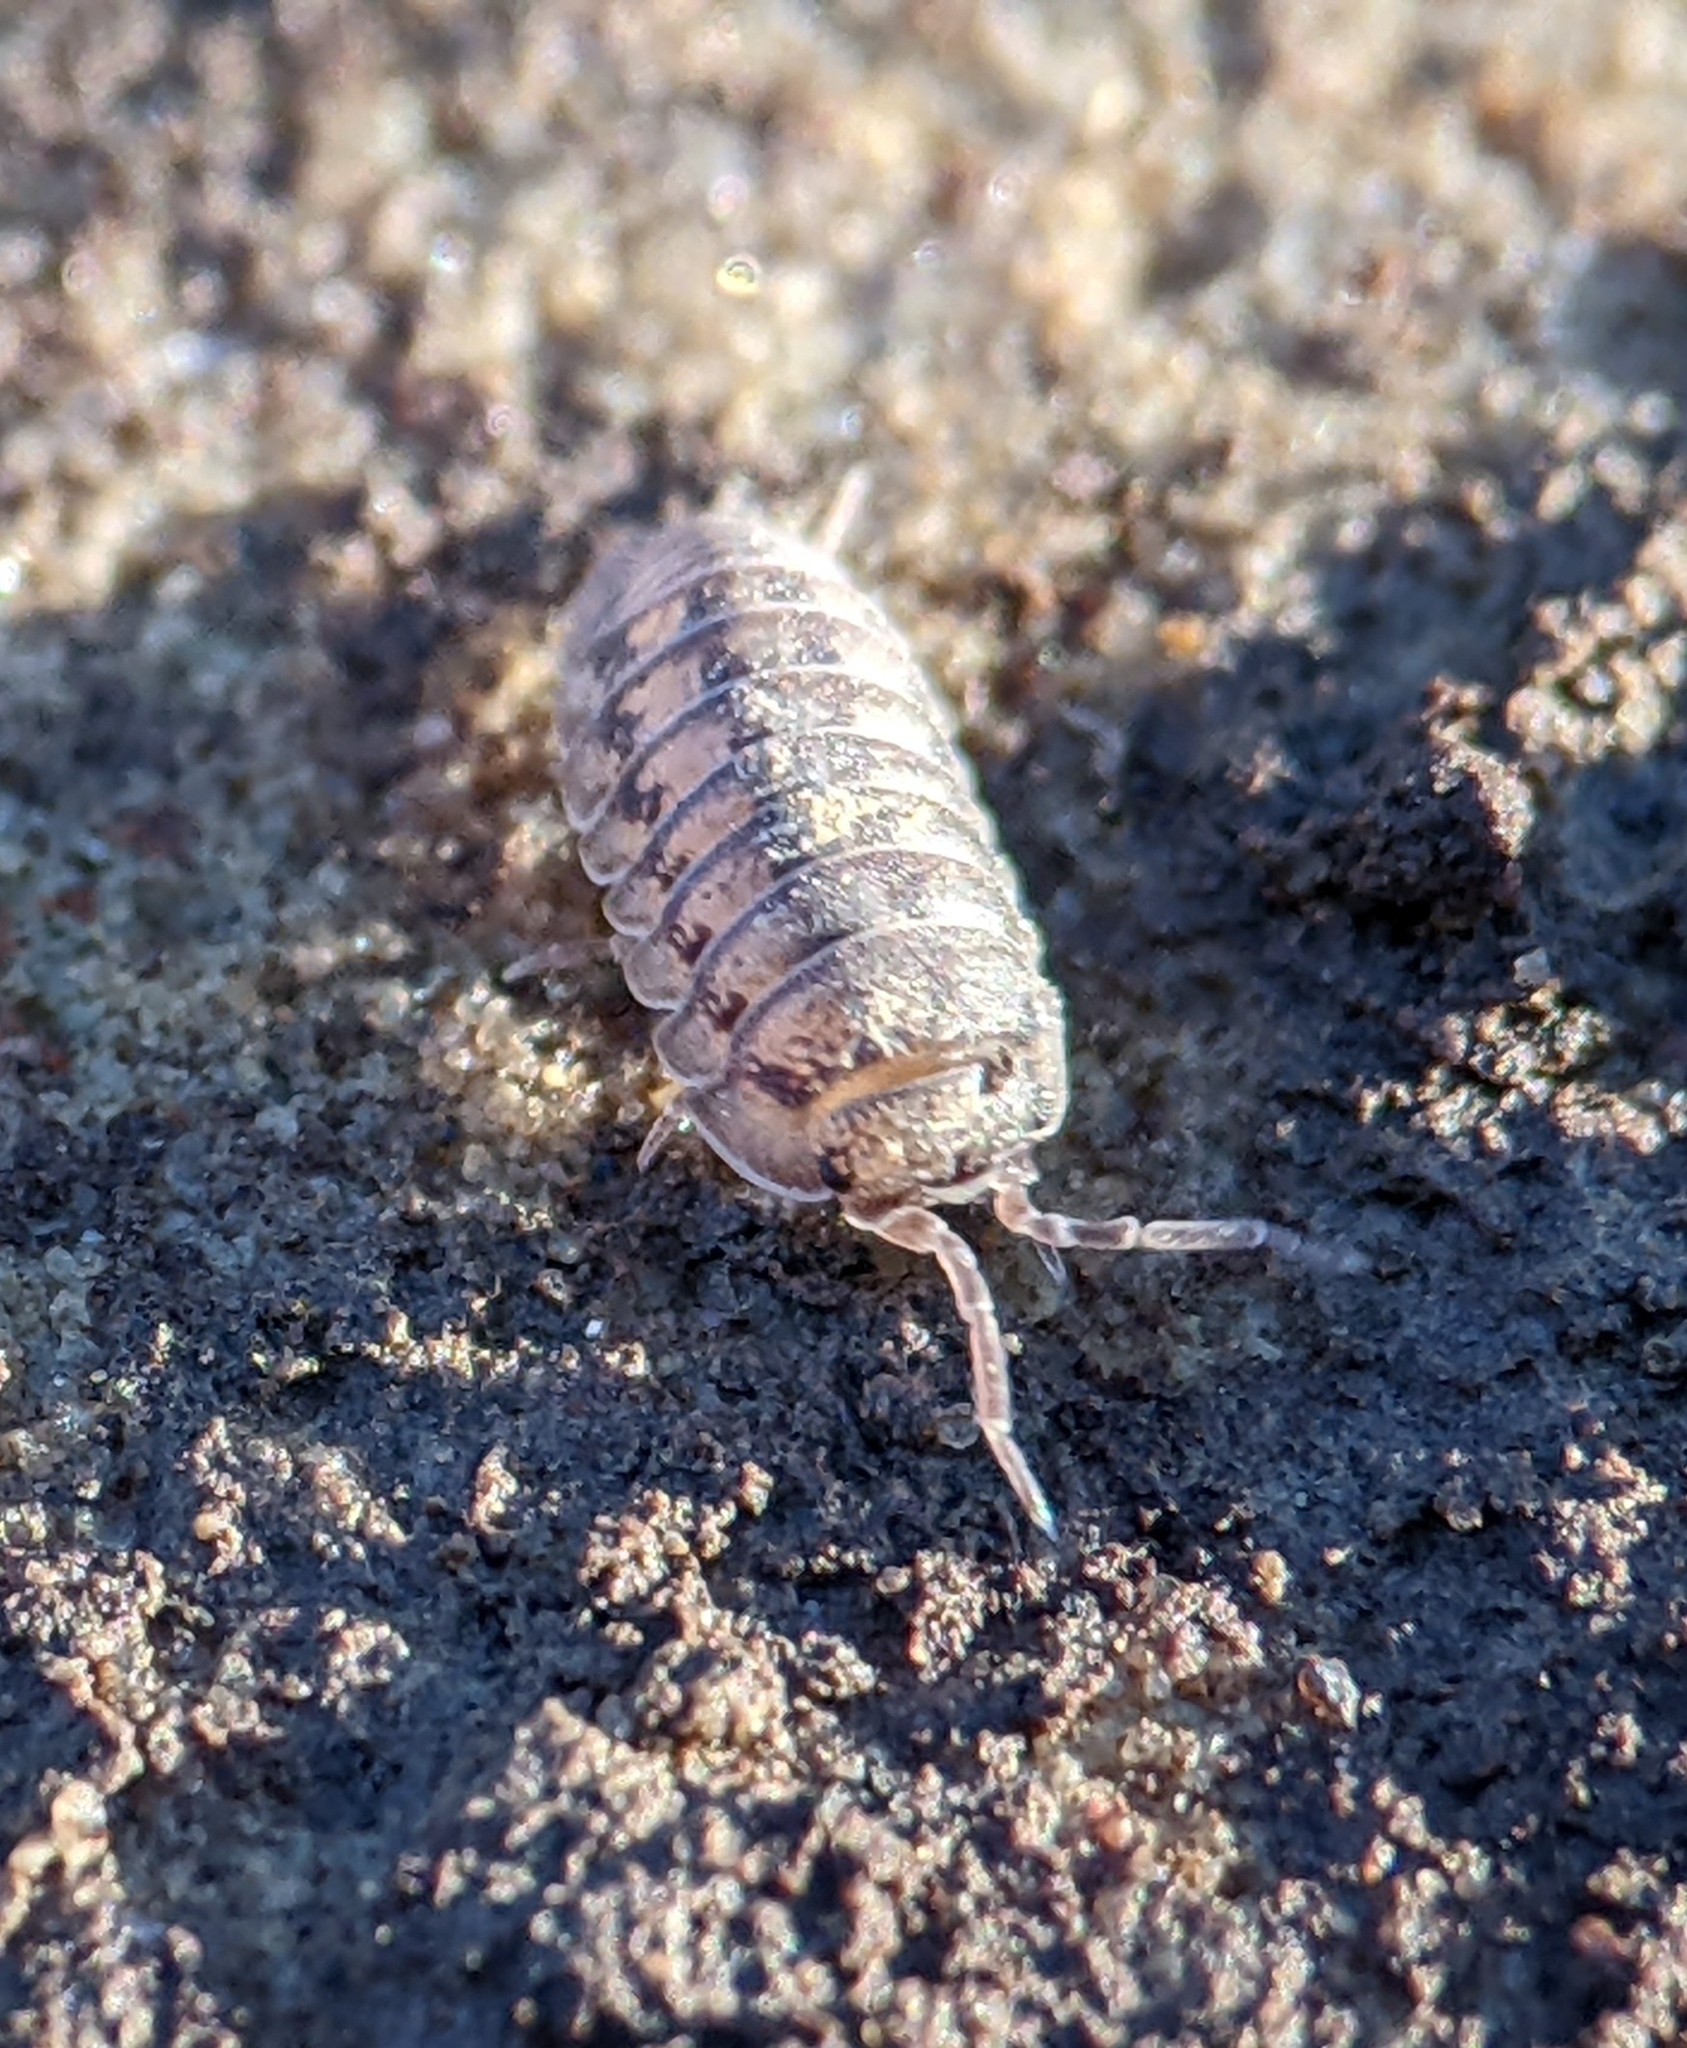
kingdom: Animalia
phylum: Arthropoda
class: Malacostraca
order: Isopoda
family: Armadillidiidae
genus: Armadillidium
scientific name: Armadillidium nasatum
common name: Isopod
